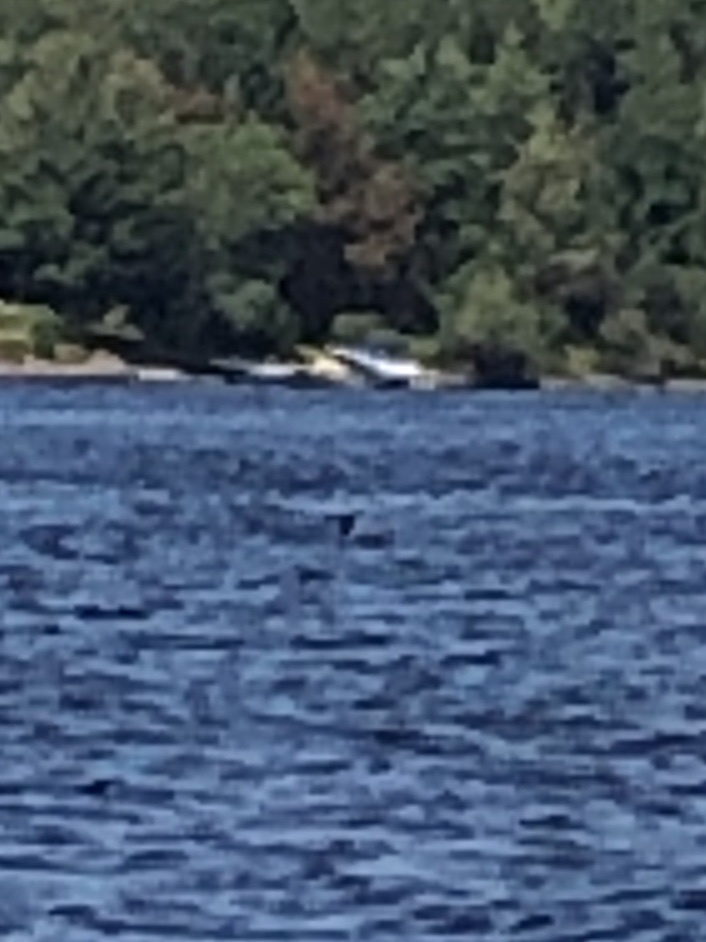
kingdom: Animalia
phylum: Chordata
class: Aves
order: Gaviiformes
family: Gaviidae
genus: Gavia
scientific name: Gavia immer
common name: Common loon
